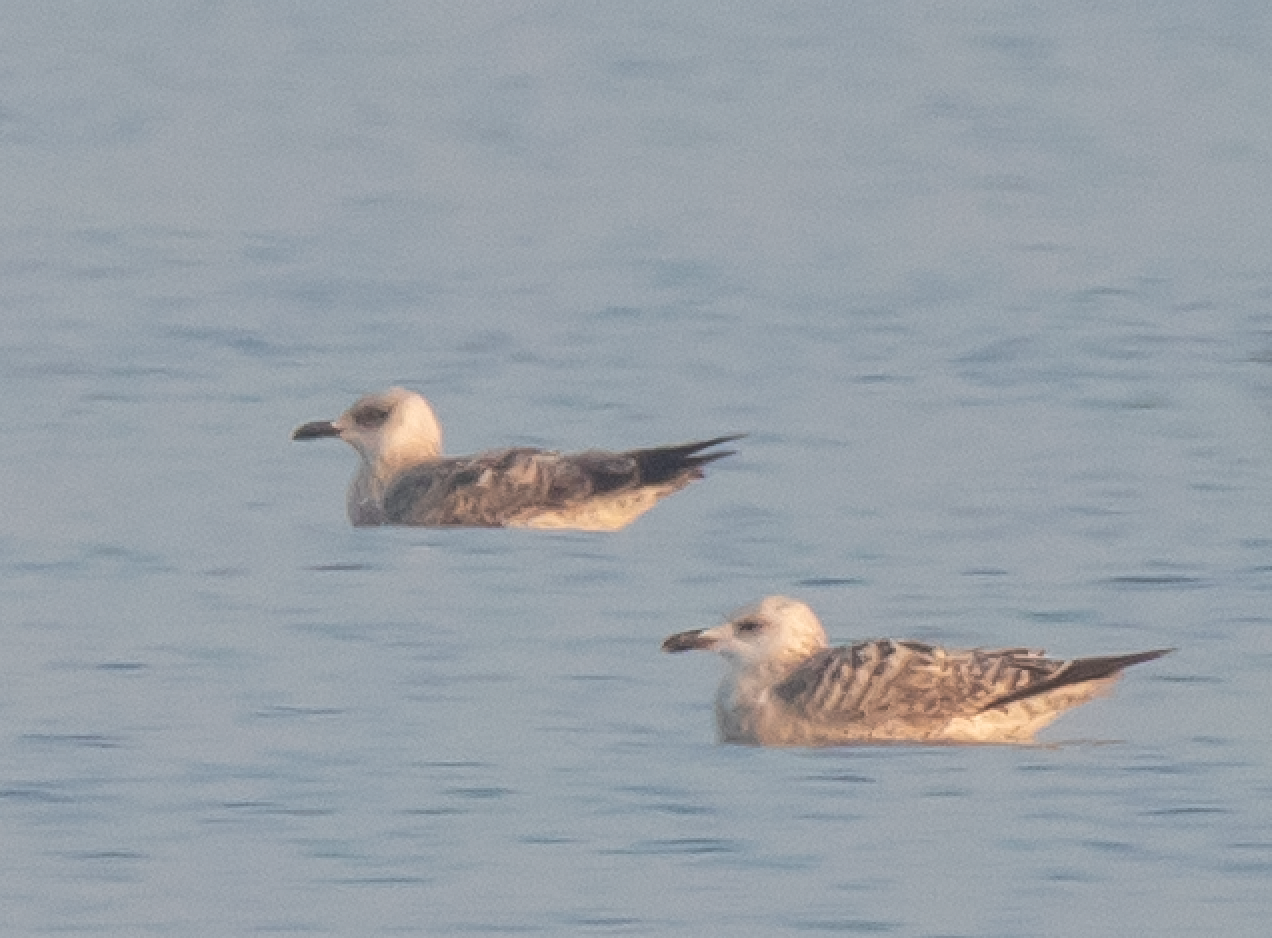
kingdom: Animalia
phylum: Chordata
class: Aves
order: Charadriiformes
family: Laridae
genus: Larus
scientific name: Larus michahellis
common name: Yellow-legged gull
